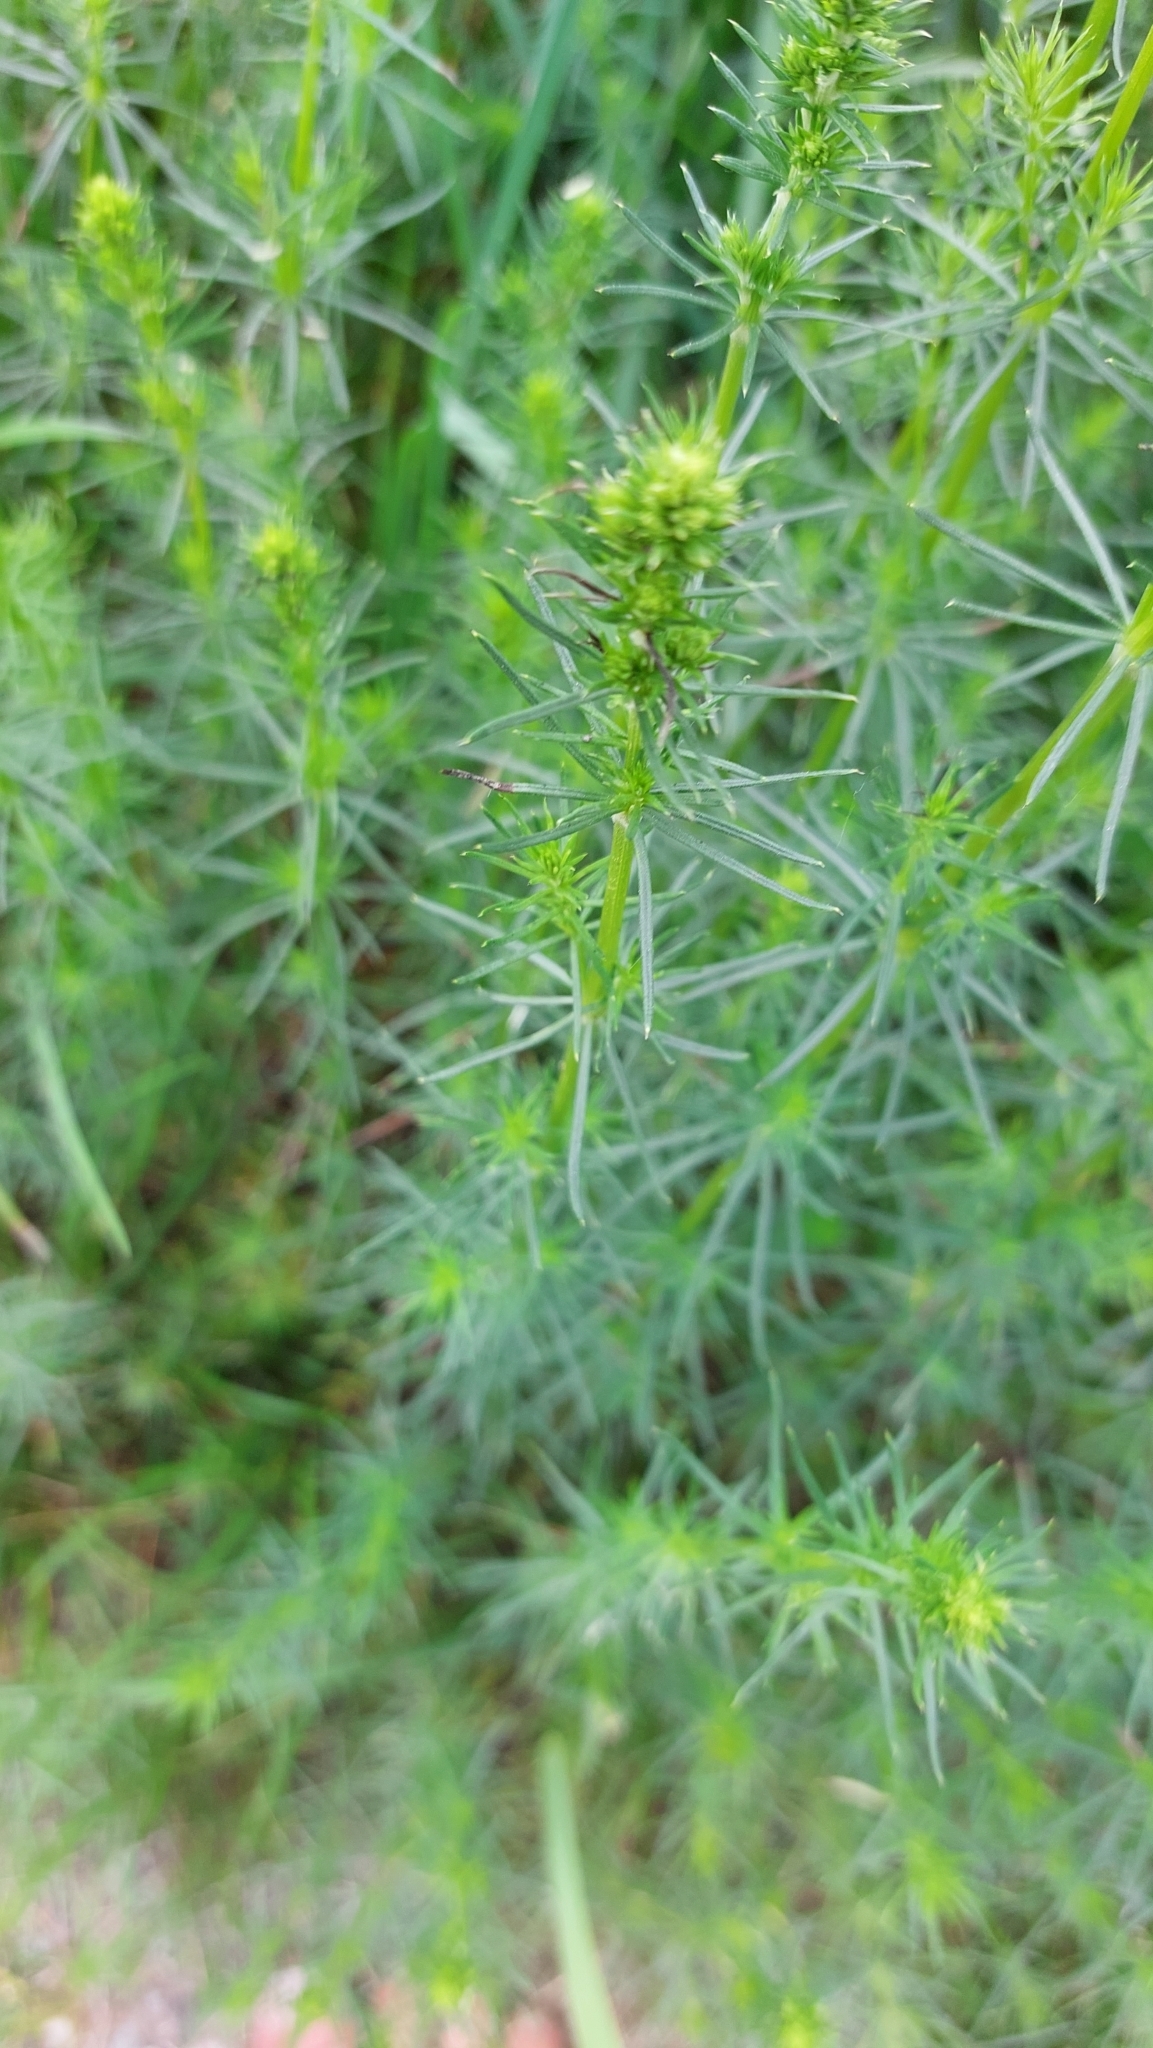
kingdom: Plantae
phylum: Tracheophyta
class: Magnoliopsida
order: Gentianales
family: Rubiaceae
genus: Galium
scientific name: Galium verum
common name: Lady's bedstraw
